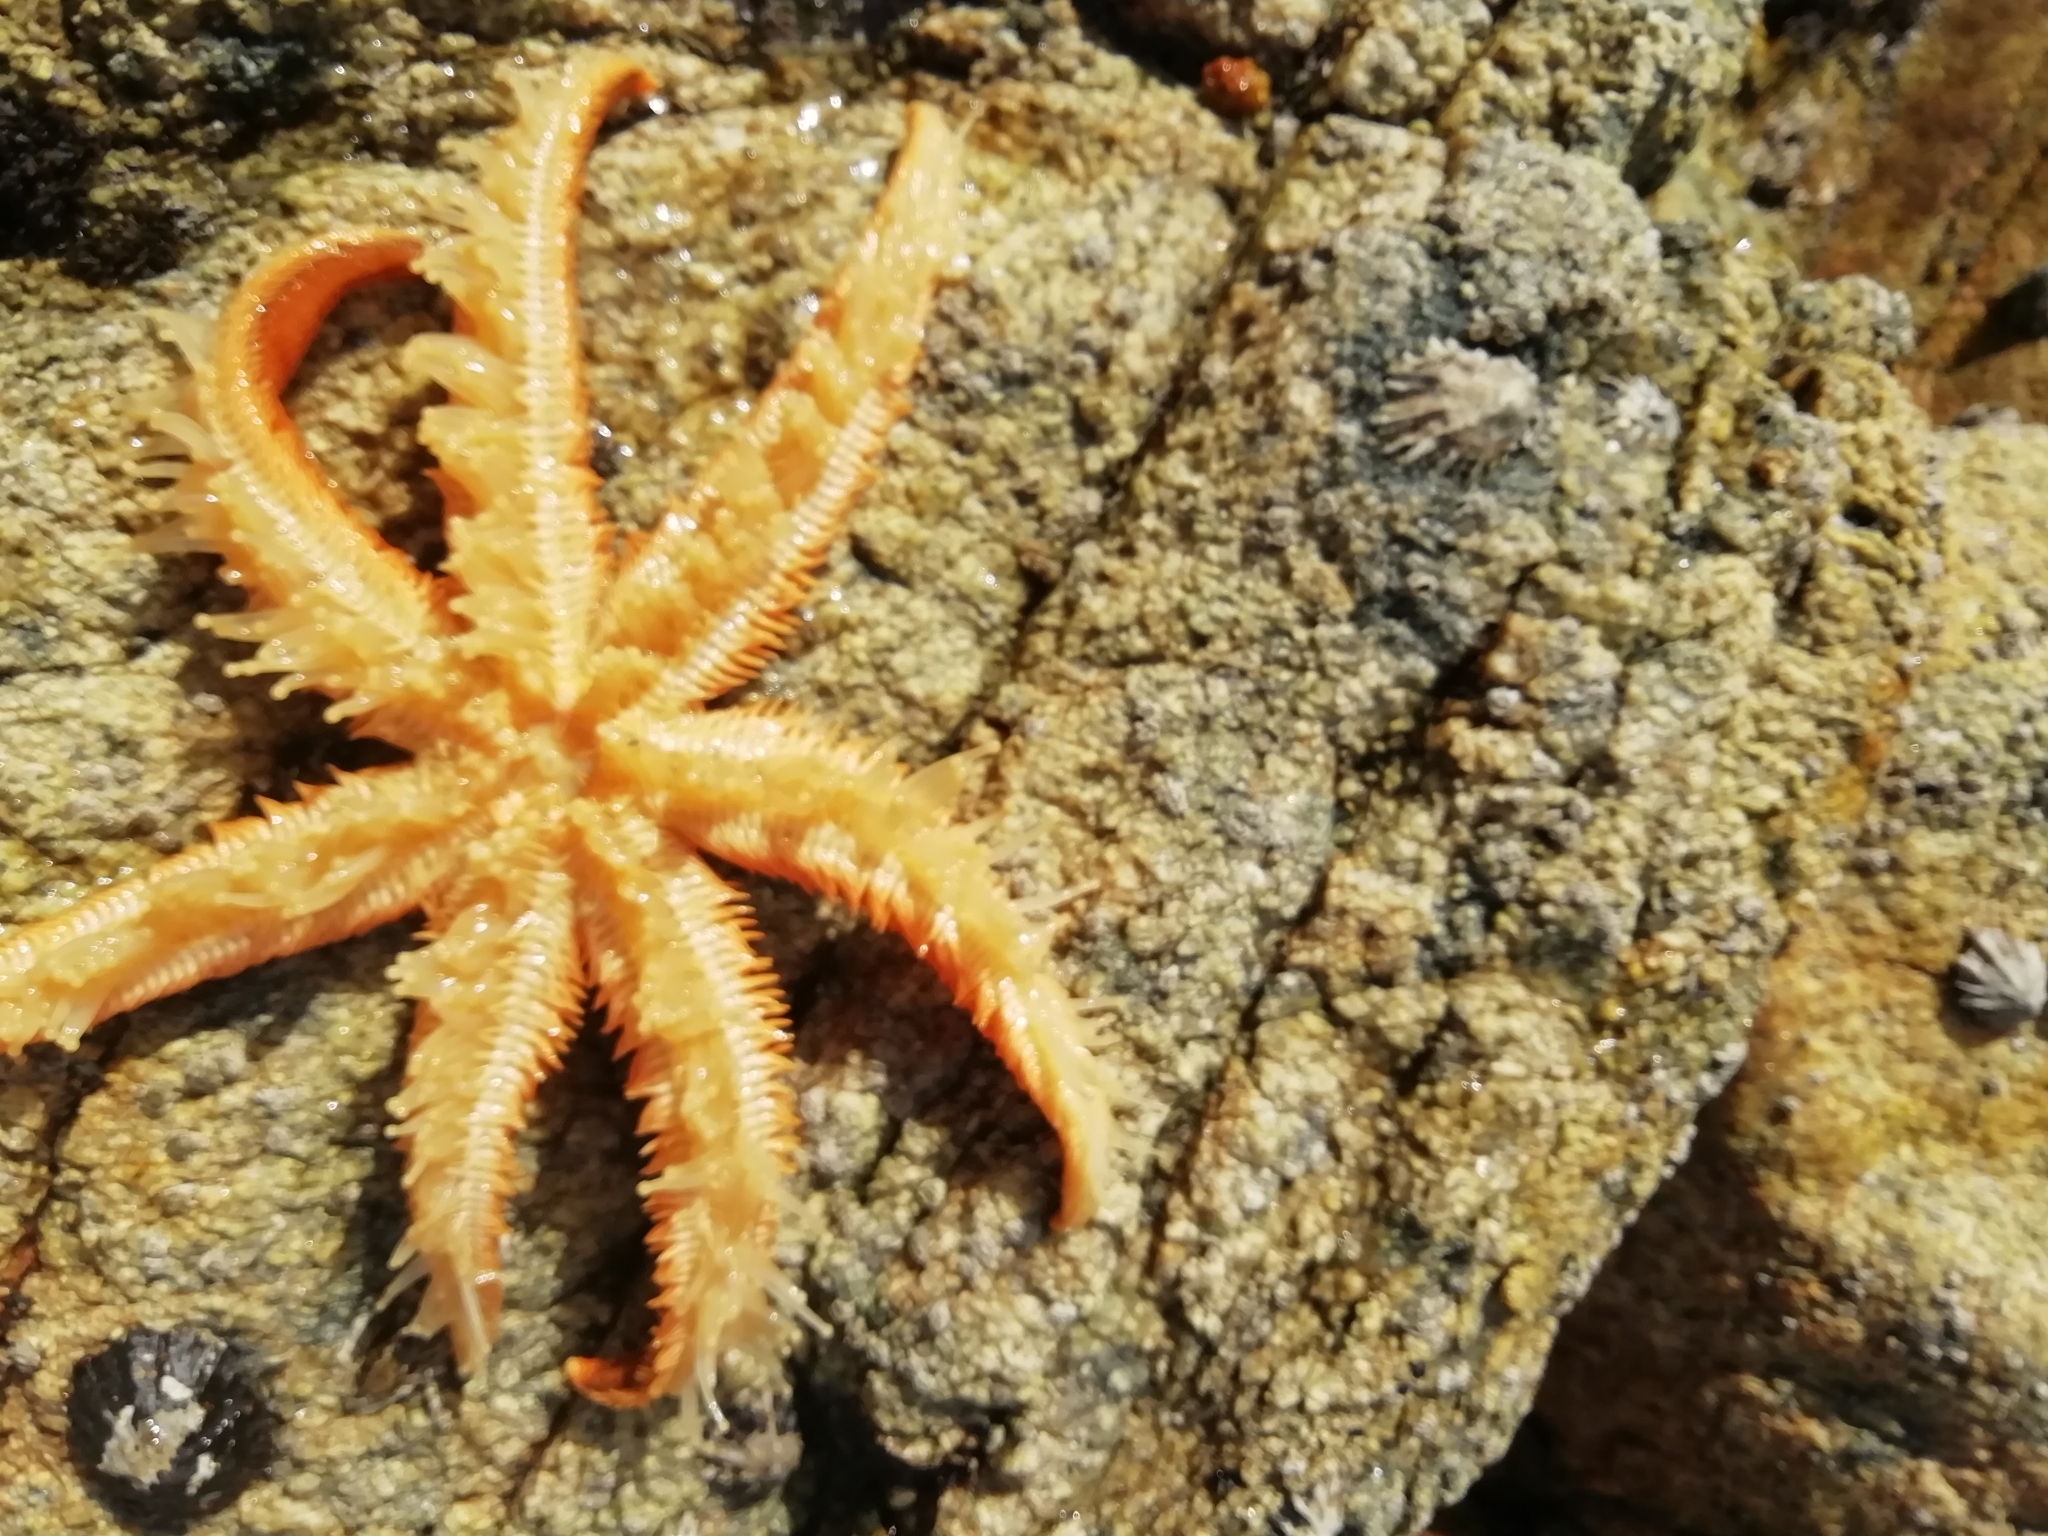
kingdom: Animalia
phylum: Echinodermata
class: Asteroidea
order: Paxillosida
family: Luidiidae
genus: Luidia
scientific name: Luidia ciliaris
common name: Seven-armed starfish
